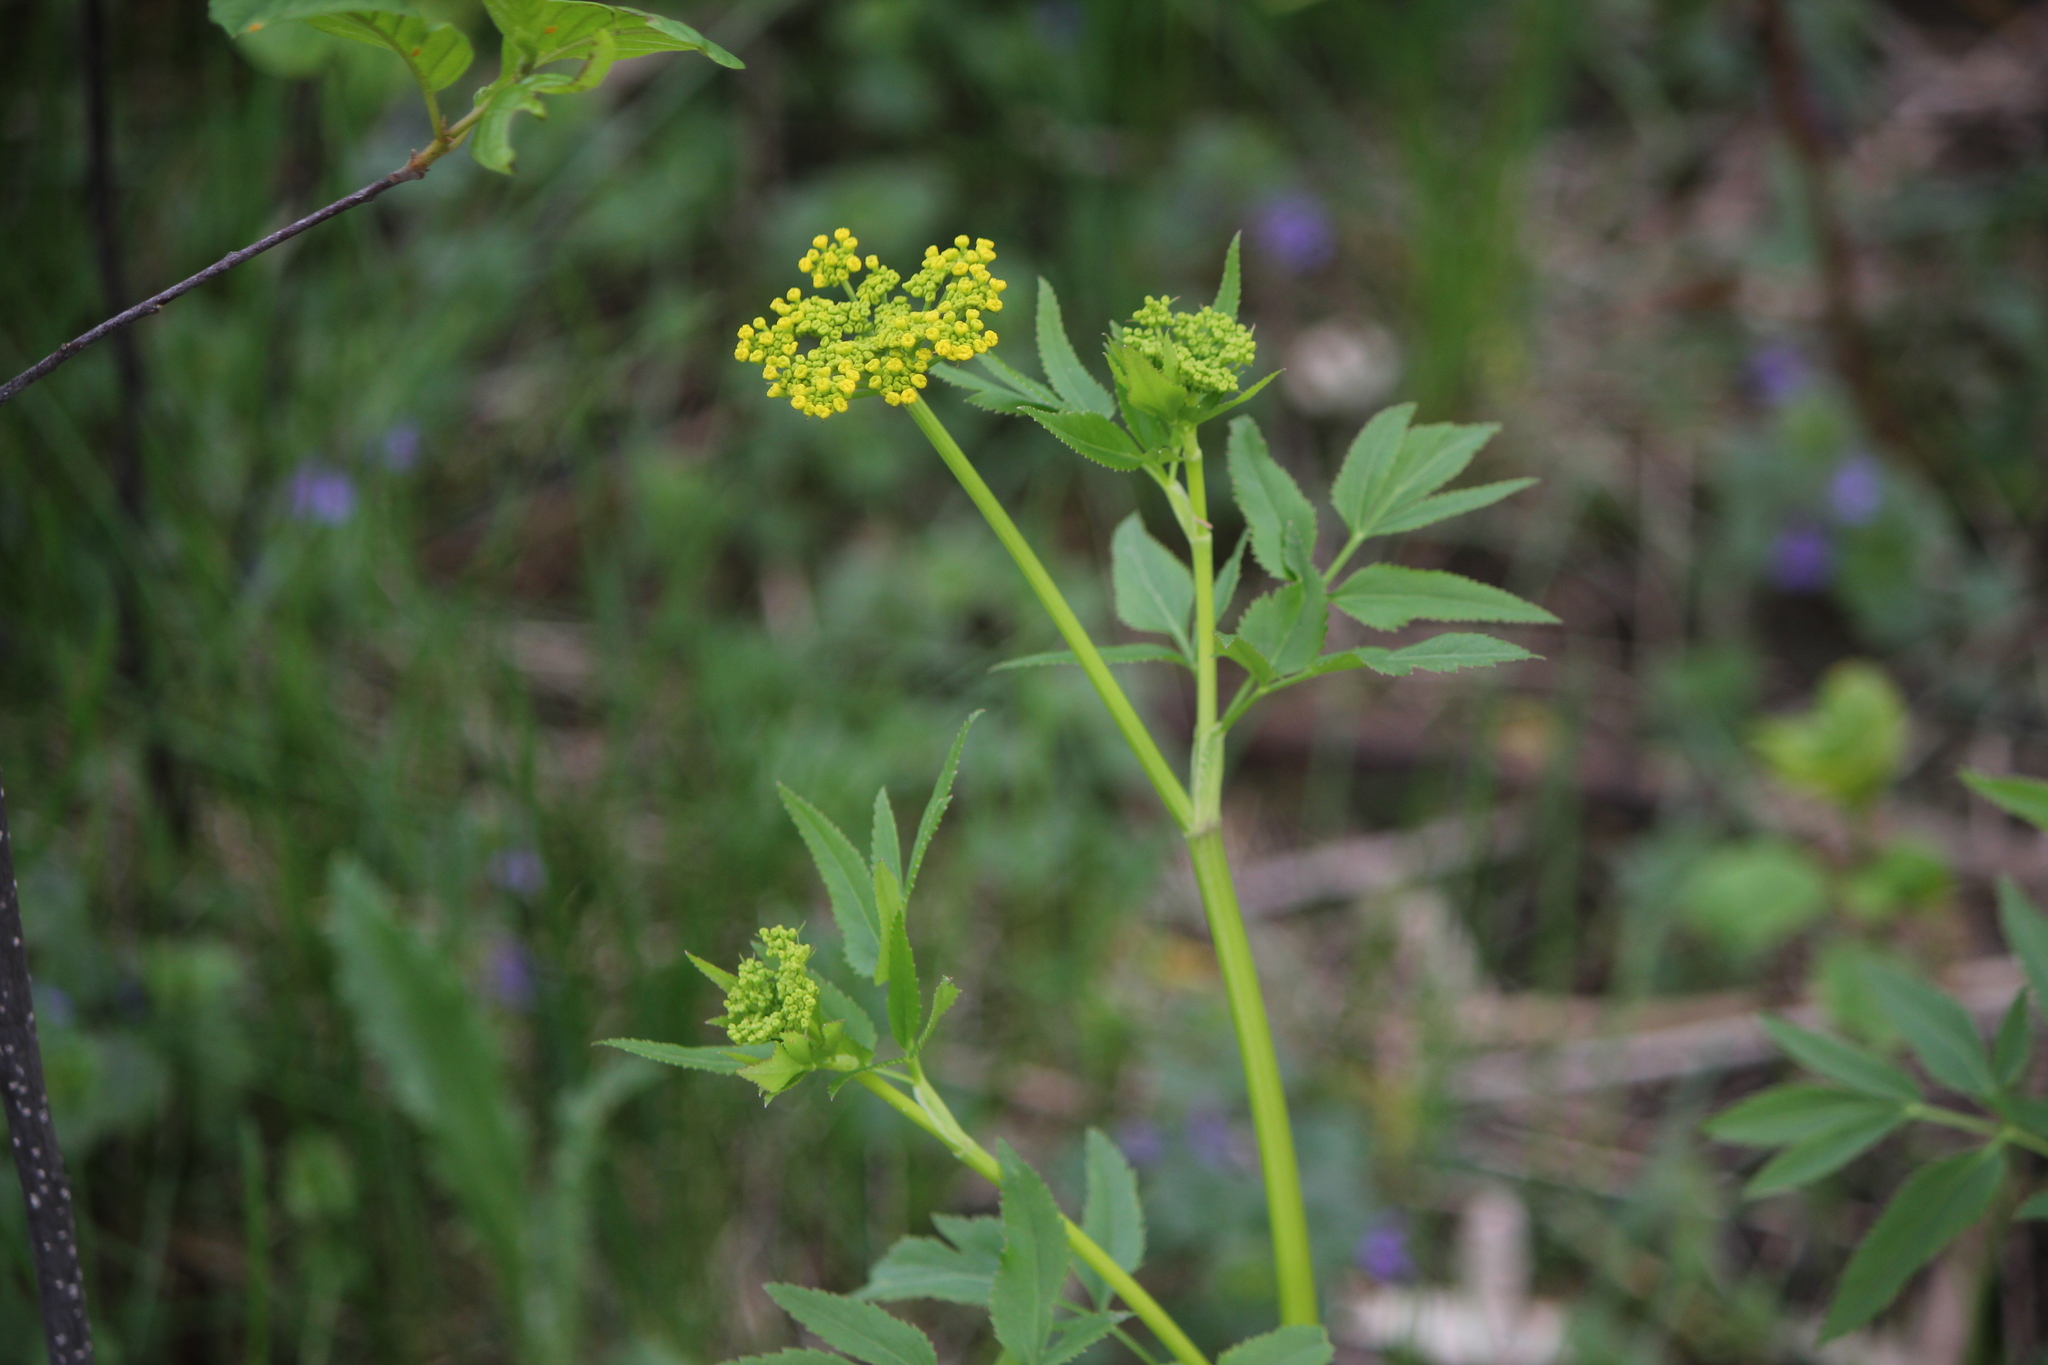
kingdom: Plantae
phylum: Tracheophyta
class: Magnoliopsida
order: Apiales
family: Apiaceae
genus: Zizia
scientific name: Zizia aurea
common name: Golden alexanders
